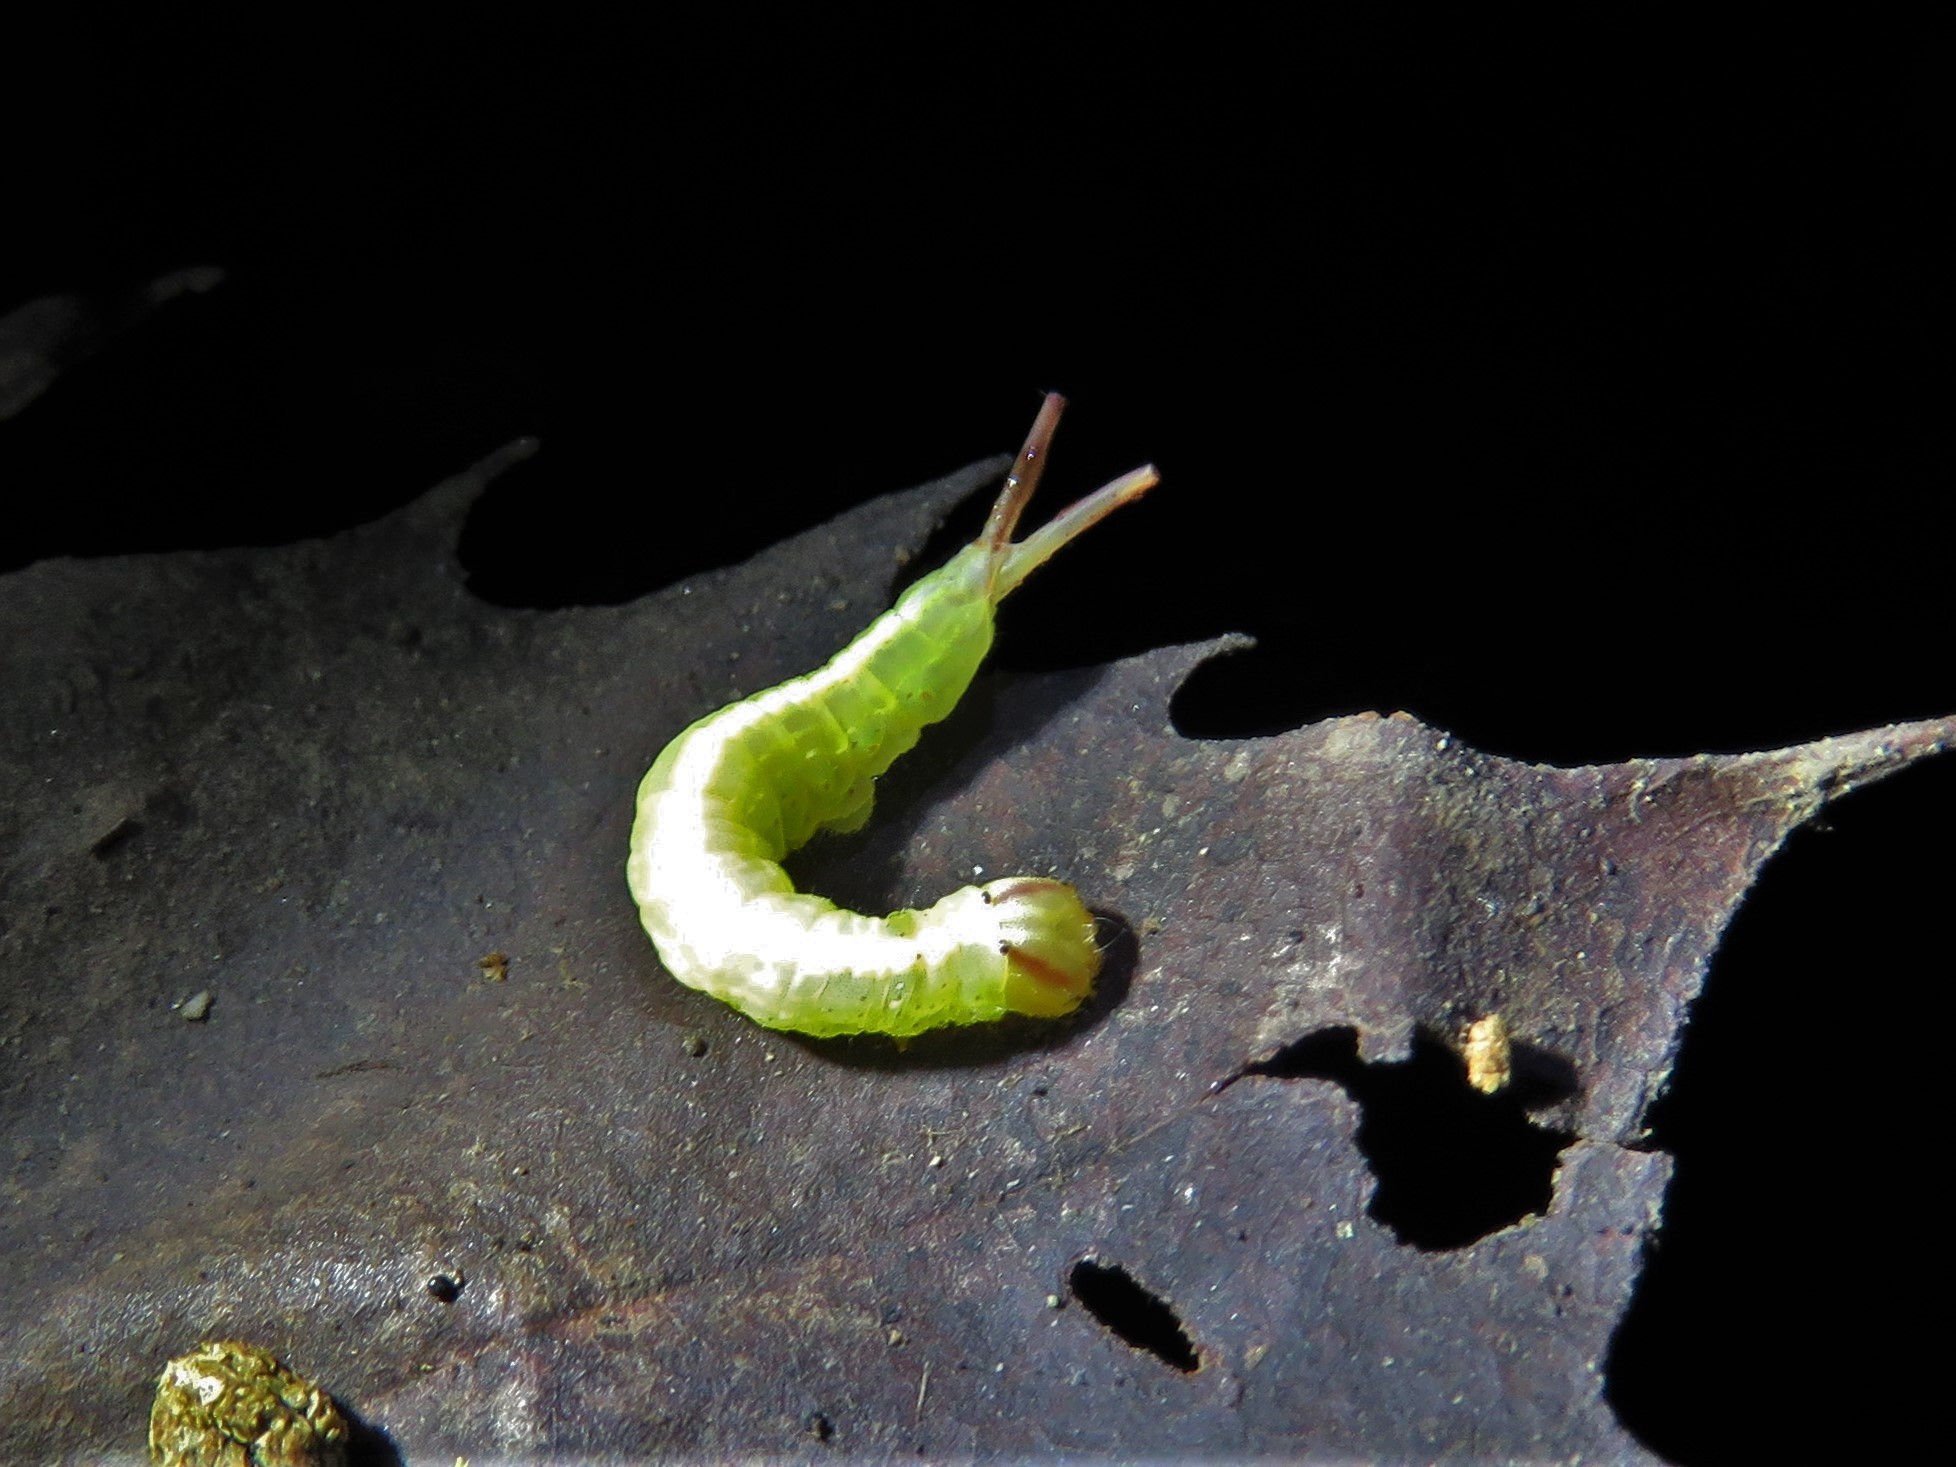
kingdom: Animalia
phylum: Arthropoda
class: Insecta
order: Lepidoptera
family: Notodontidae
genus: Misogada
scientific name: Misogada unicolor
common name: Drab prominent
